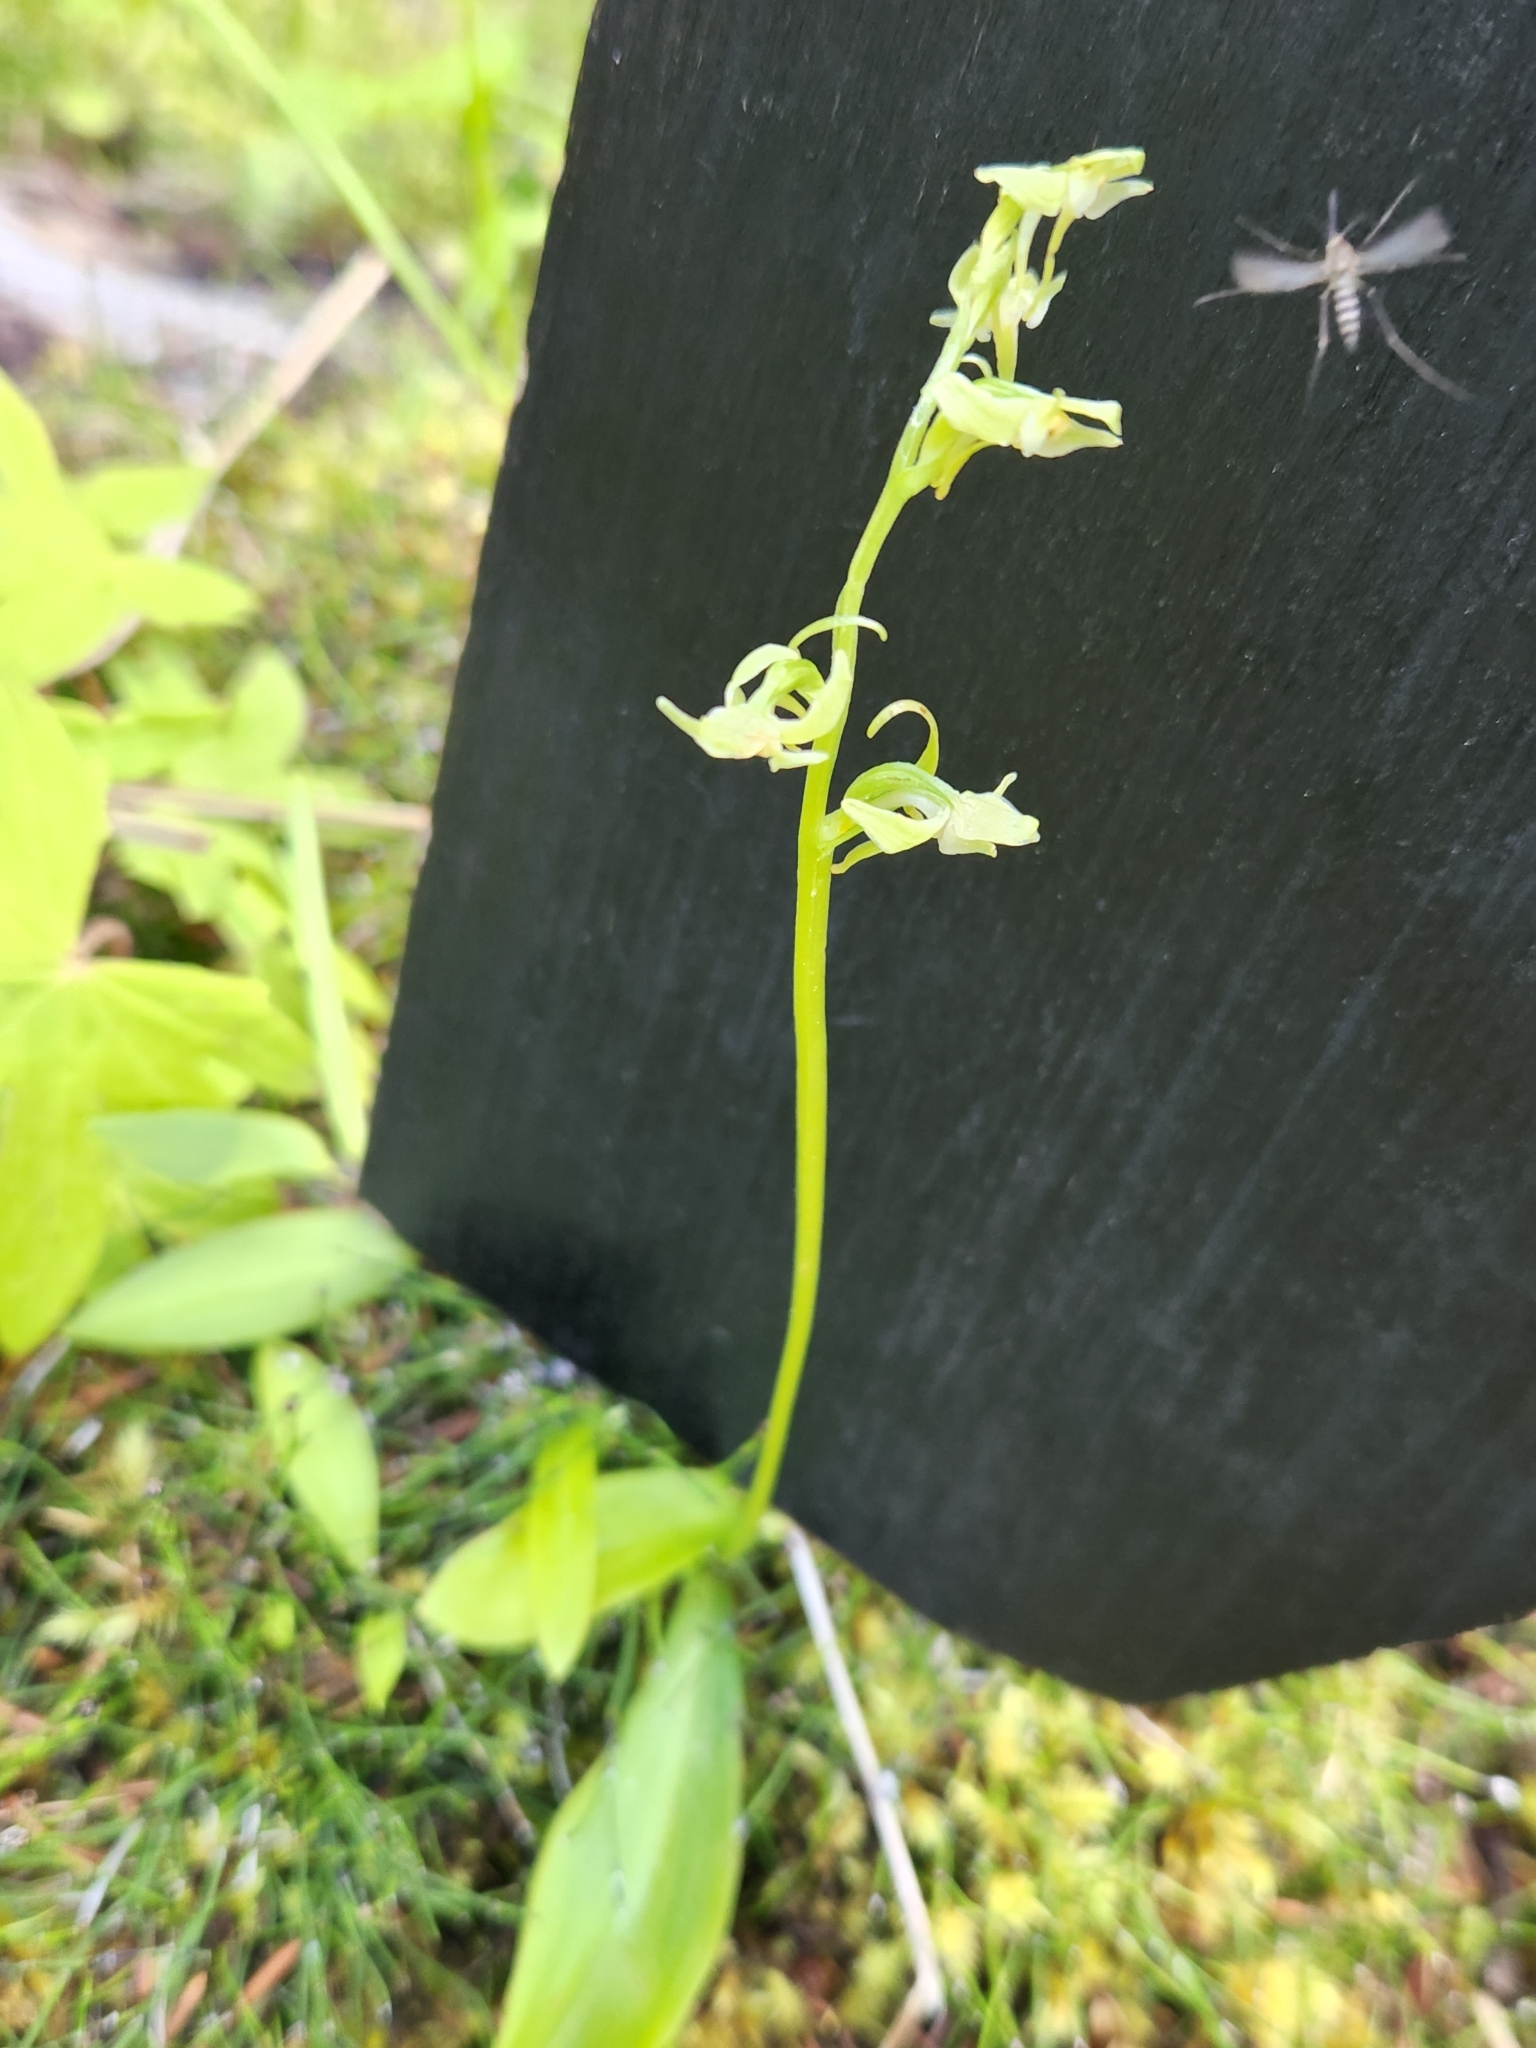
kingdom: Plantae
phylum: Tracheophyta
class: Liliopsida
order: Asparagales
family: Orchidaceae
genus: Platanthera
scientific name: Platanthera obtusata
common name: Blunt bog orchid
